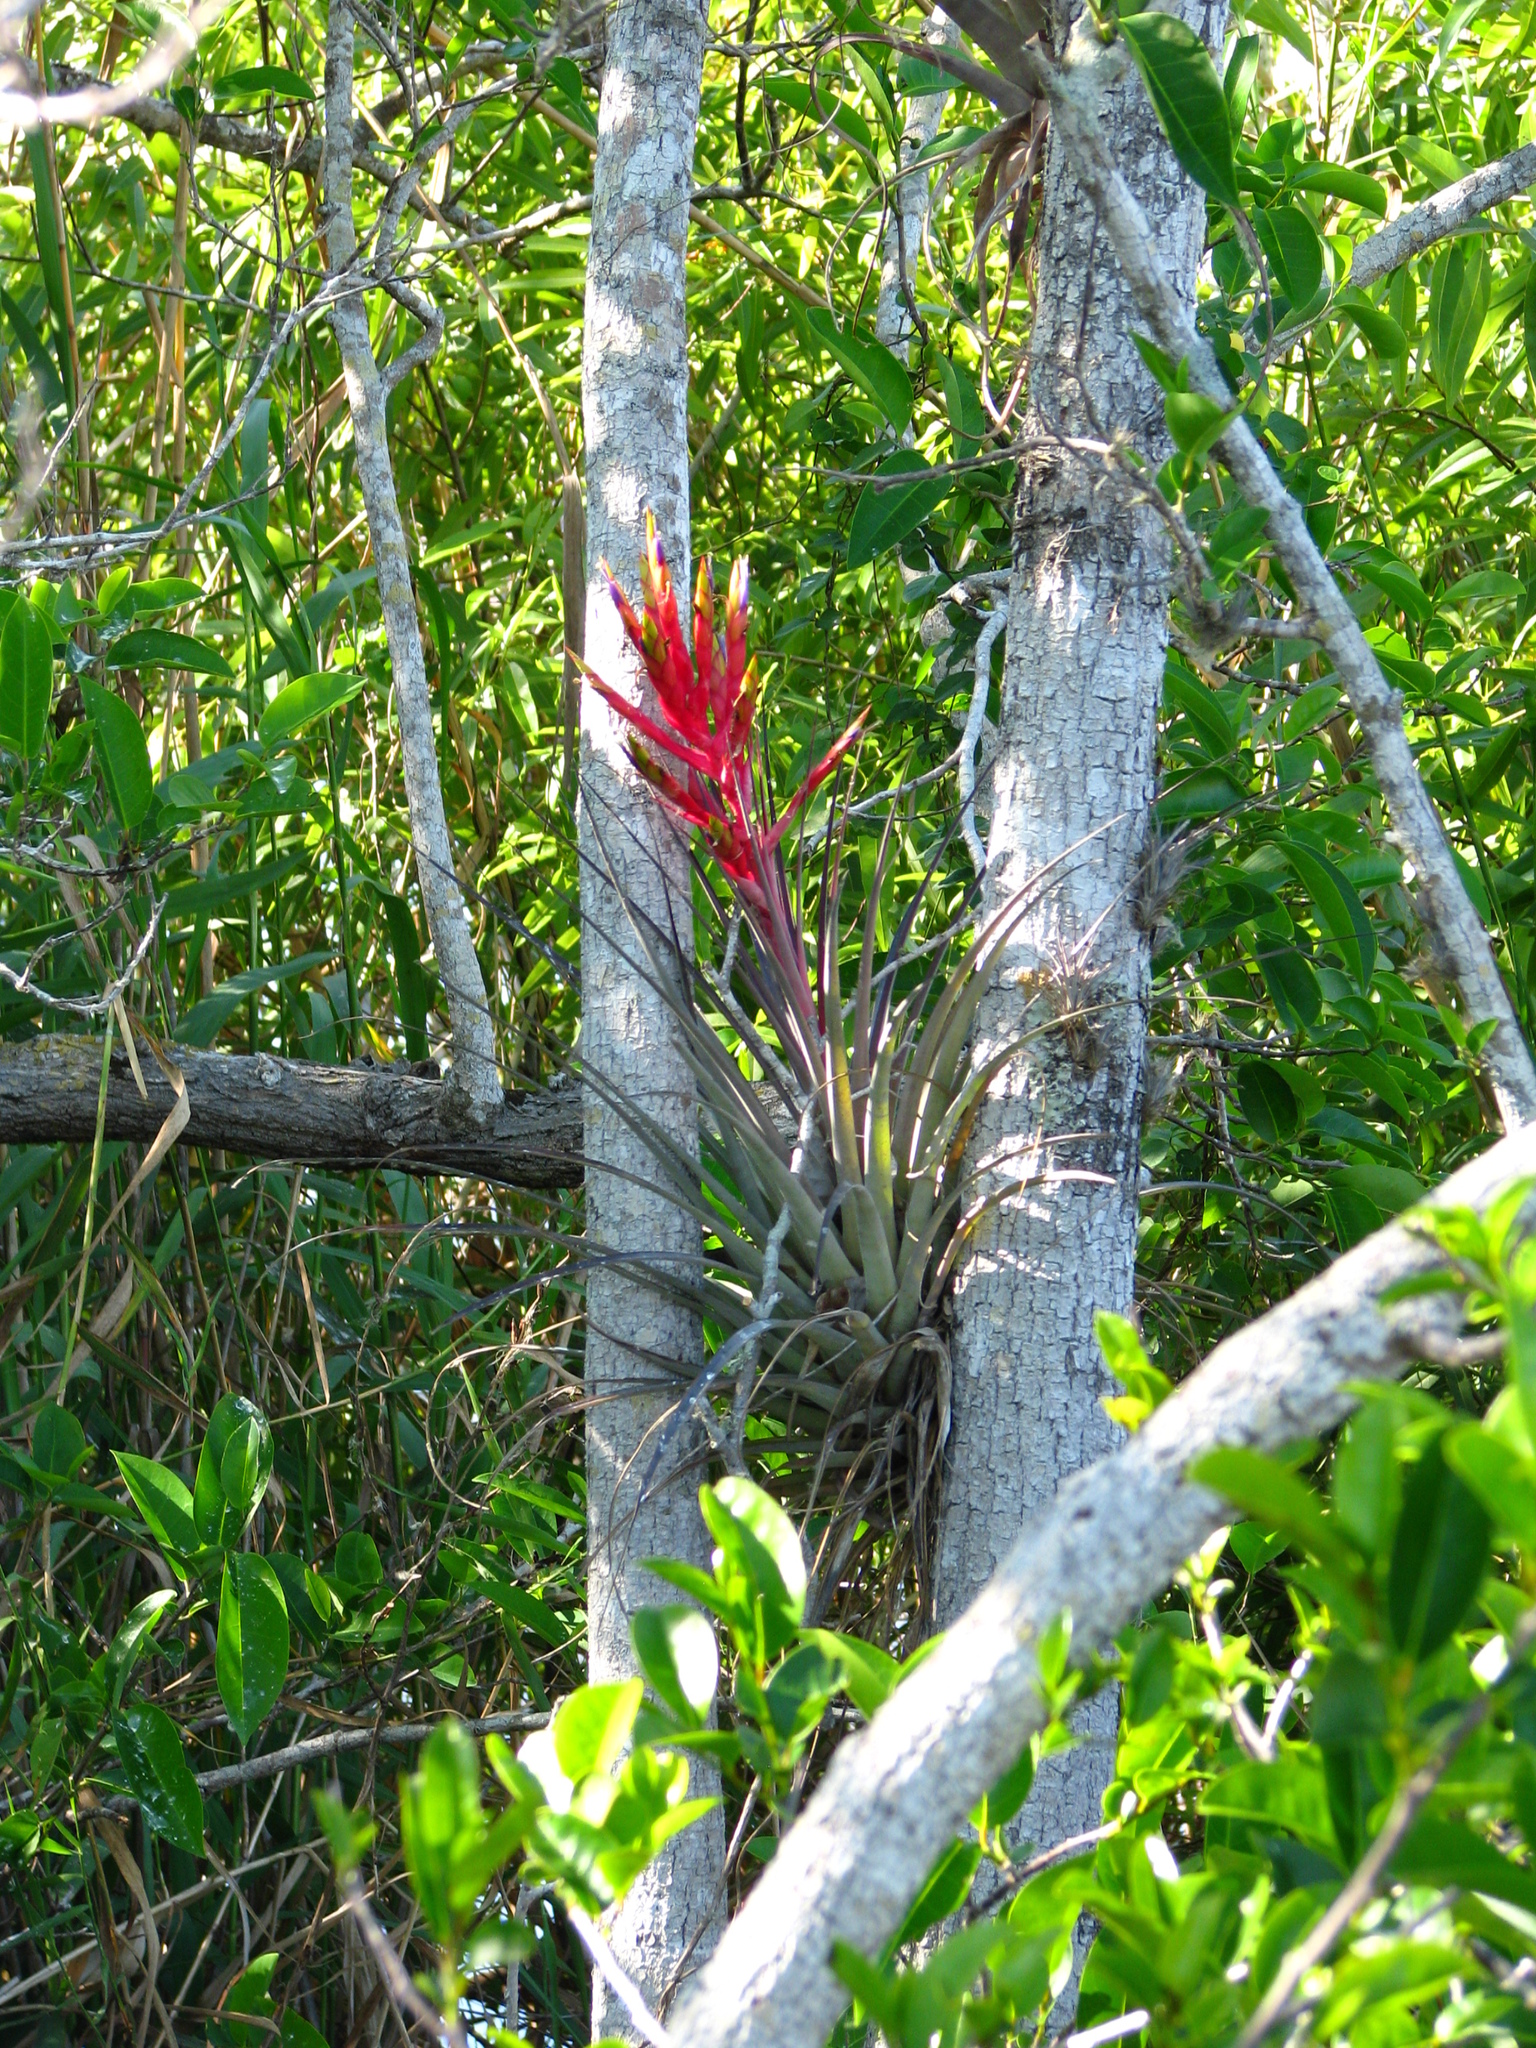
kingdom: Plantae
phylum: Tracheophyta
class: Liliopsida
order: Poales
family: Bromeliaceae
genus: Tillandsia
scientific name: Tillandsia fasciculata
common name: Giant airplant
